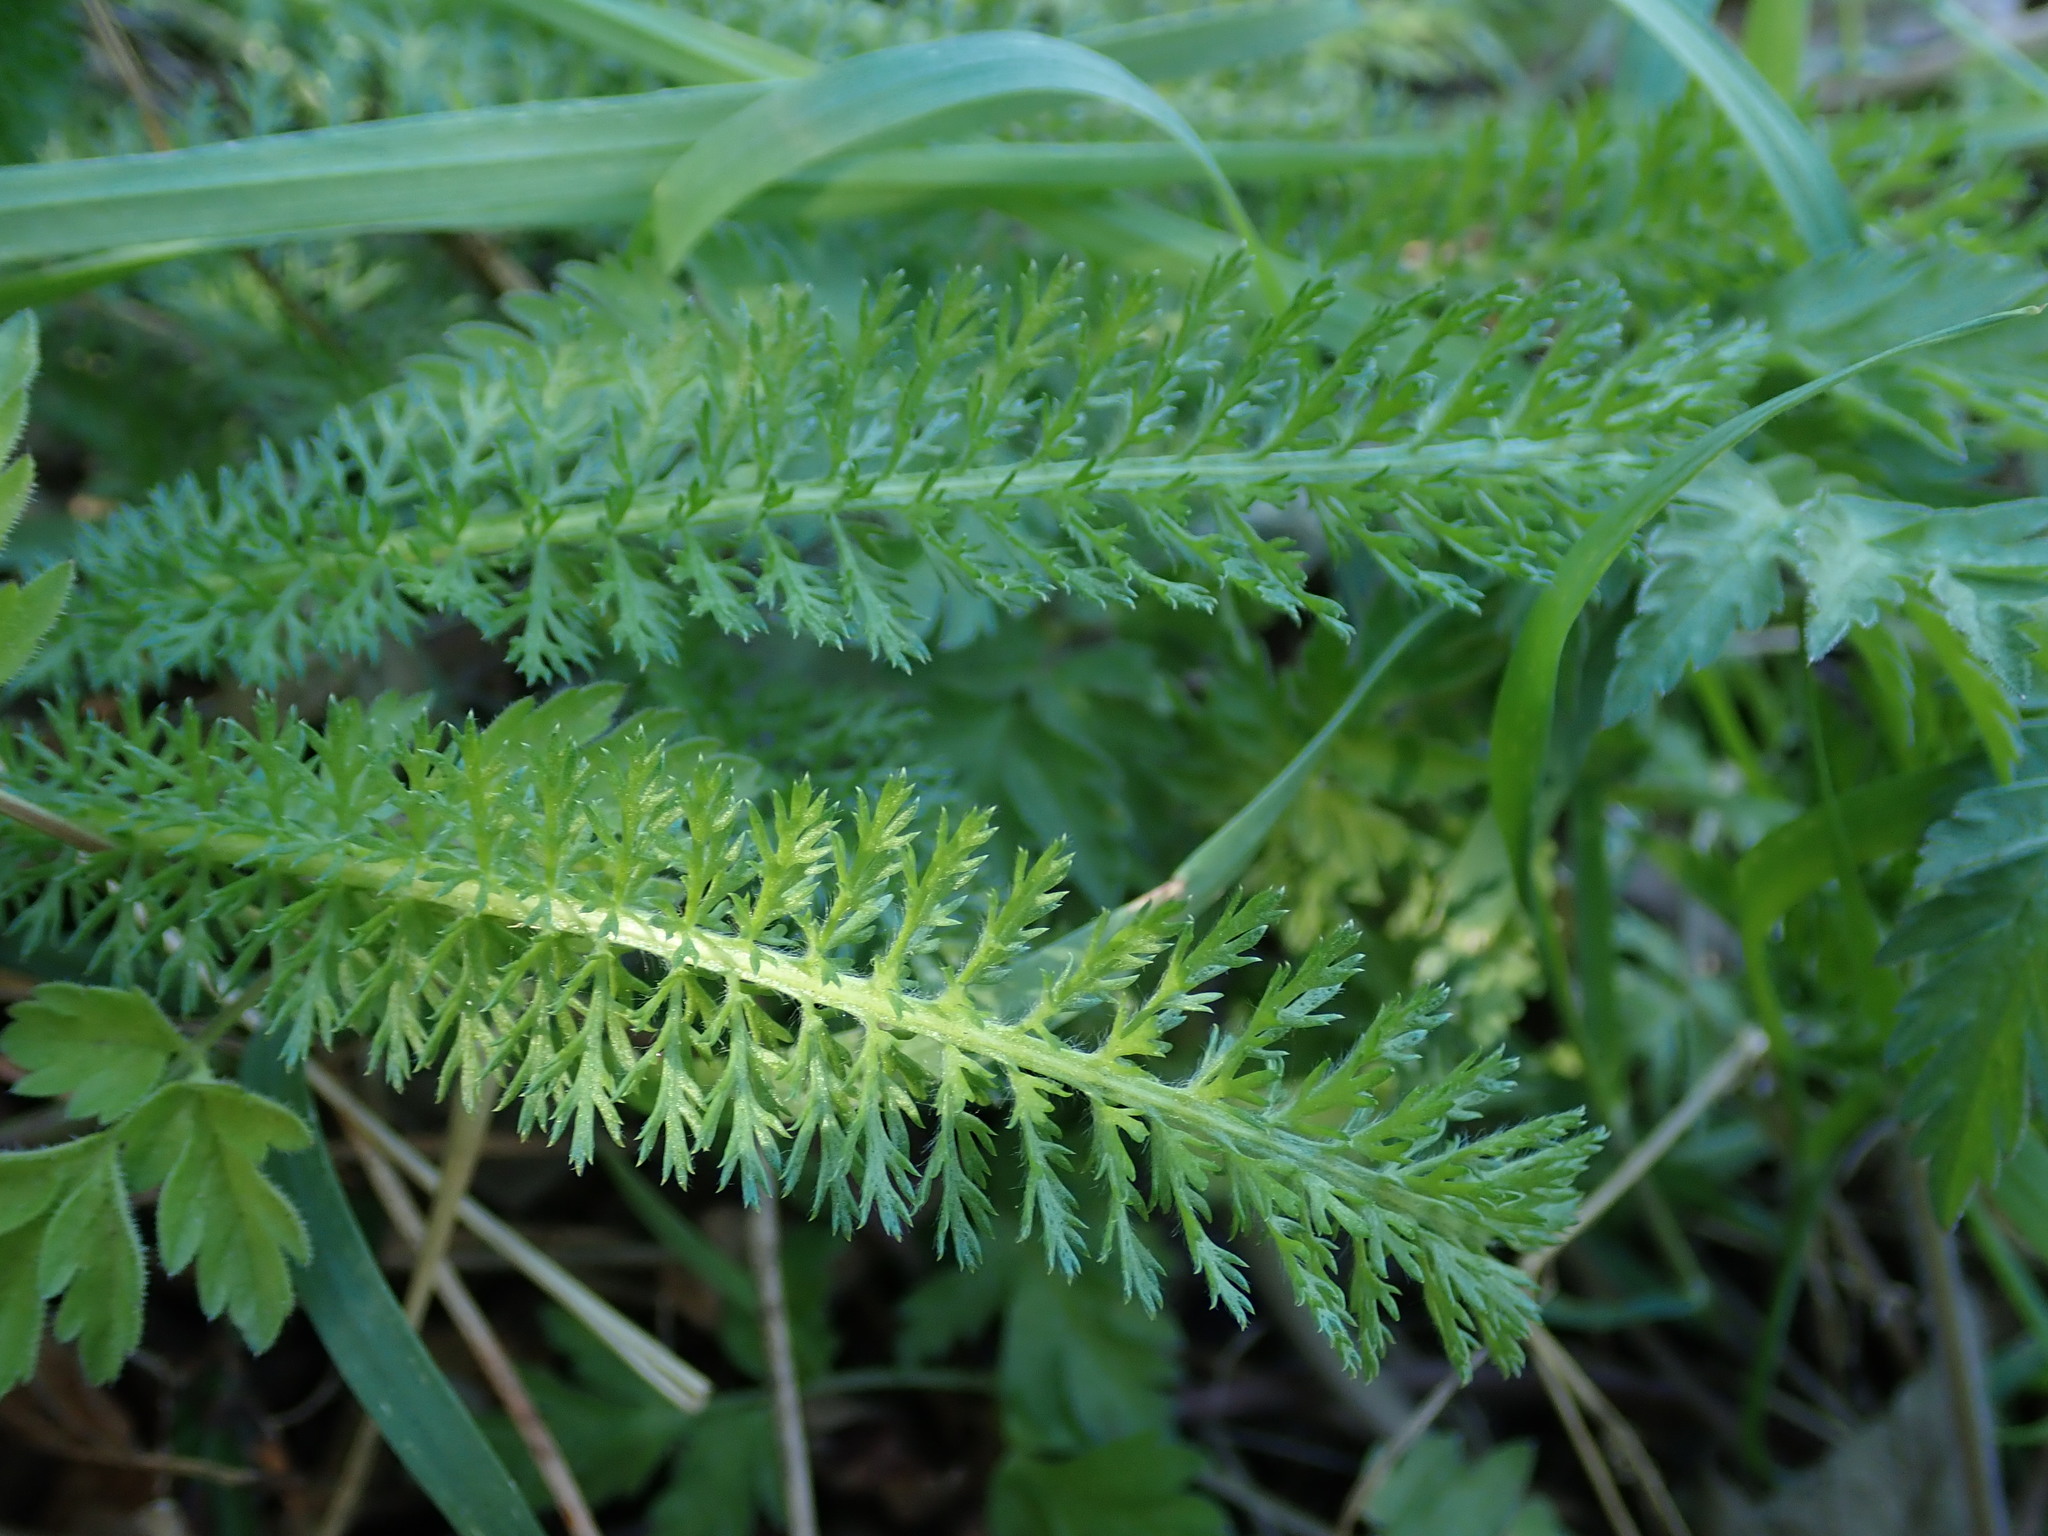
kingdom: Plantae
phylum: Tracheophyta
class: Magnoliopsida
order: Asterales
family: Asteraceae
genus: Achillea
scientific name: Achillea millefolium
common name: Yarrow
